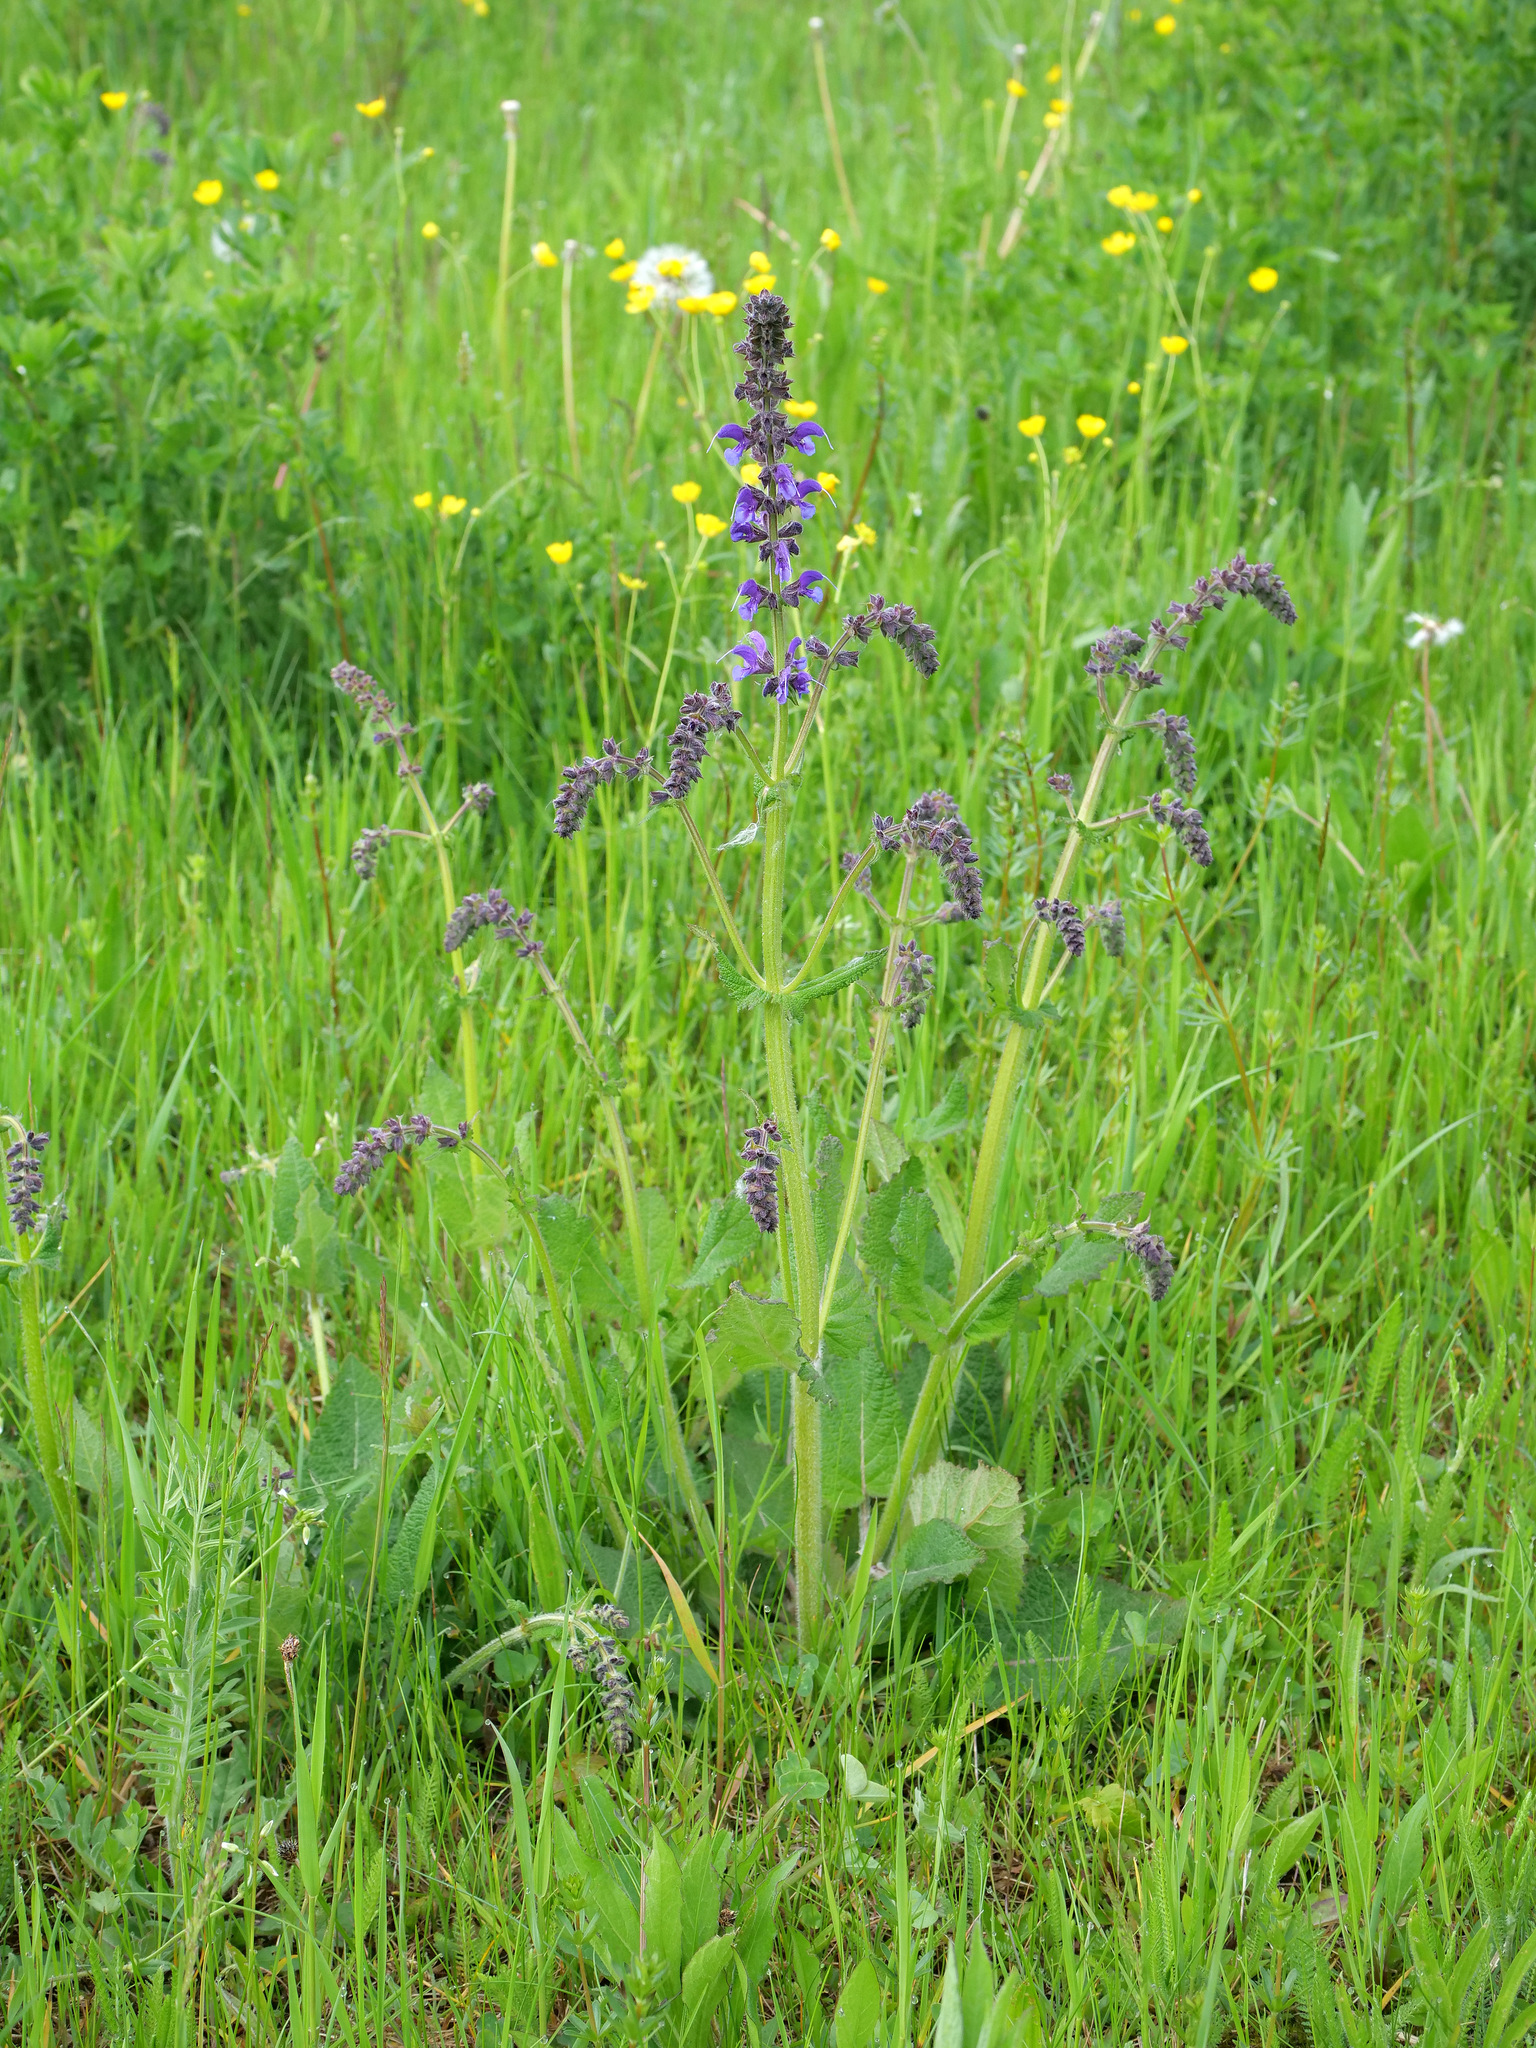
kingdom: Plantae
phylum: Tracheophyta
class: Magnoliopsida
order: Lamiales
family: Lamiaceae
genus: Salvia
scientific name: Salvia pratensis
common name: Meadow sage
